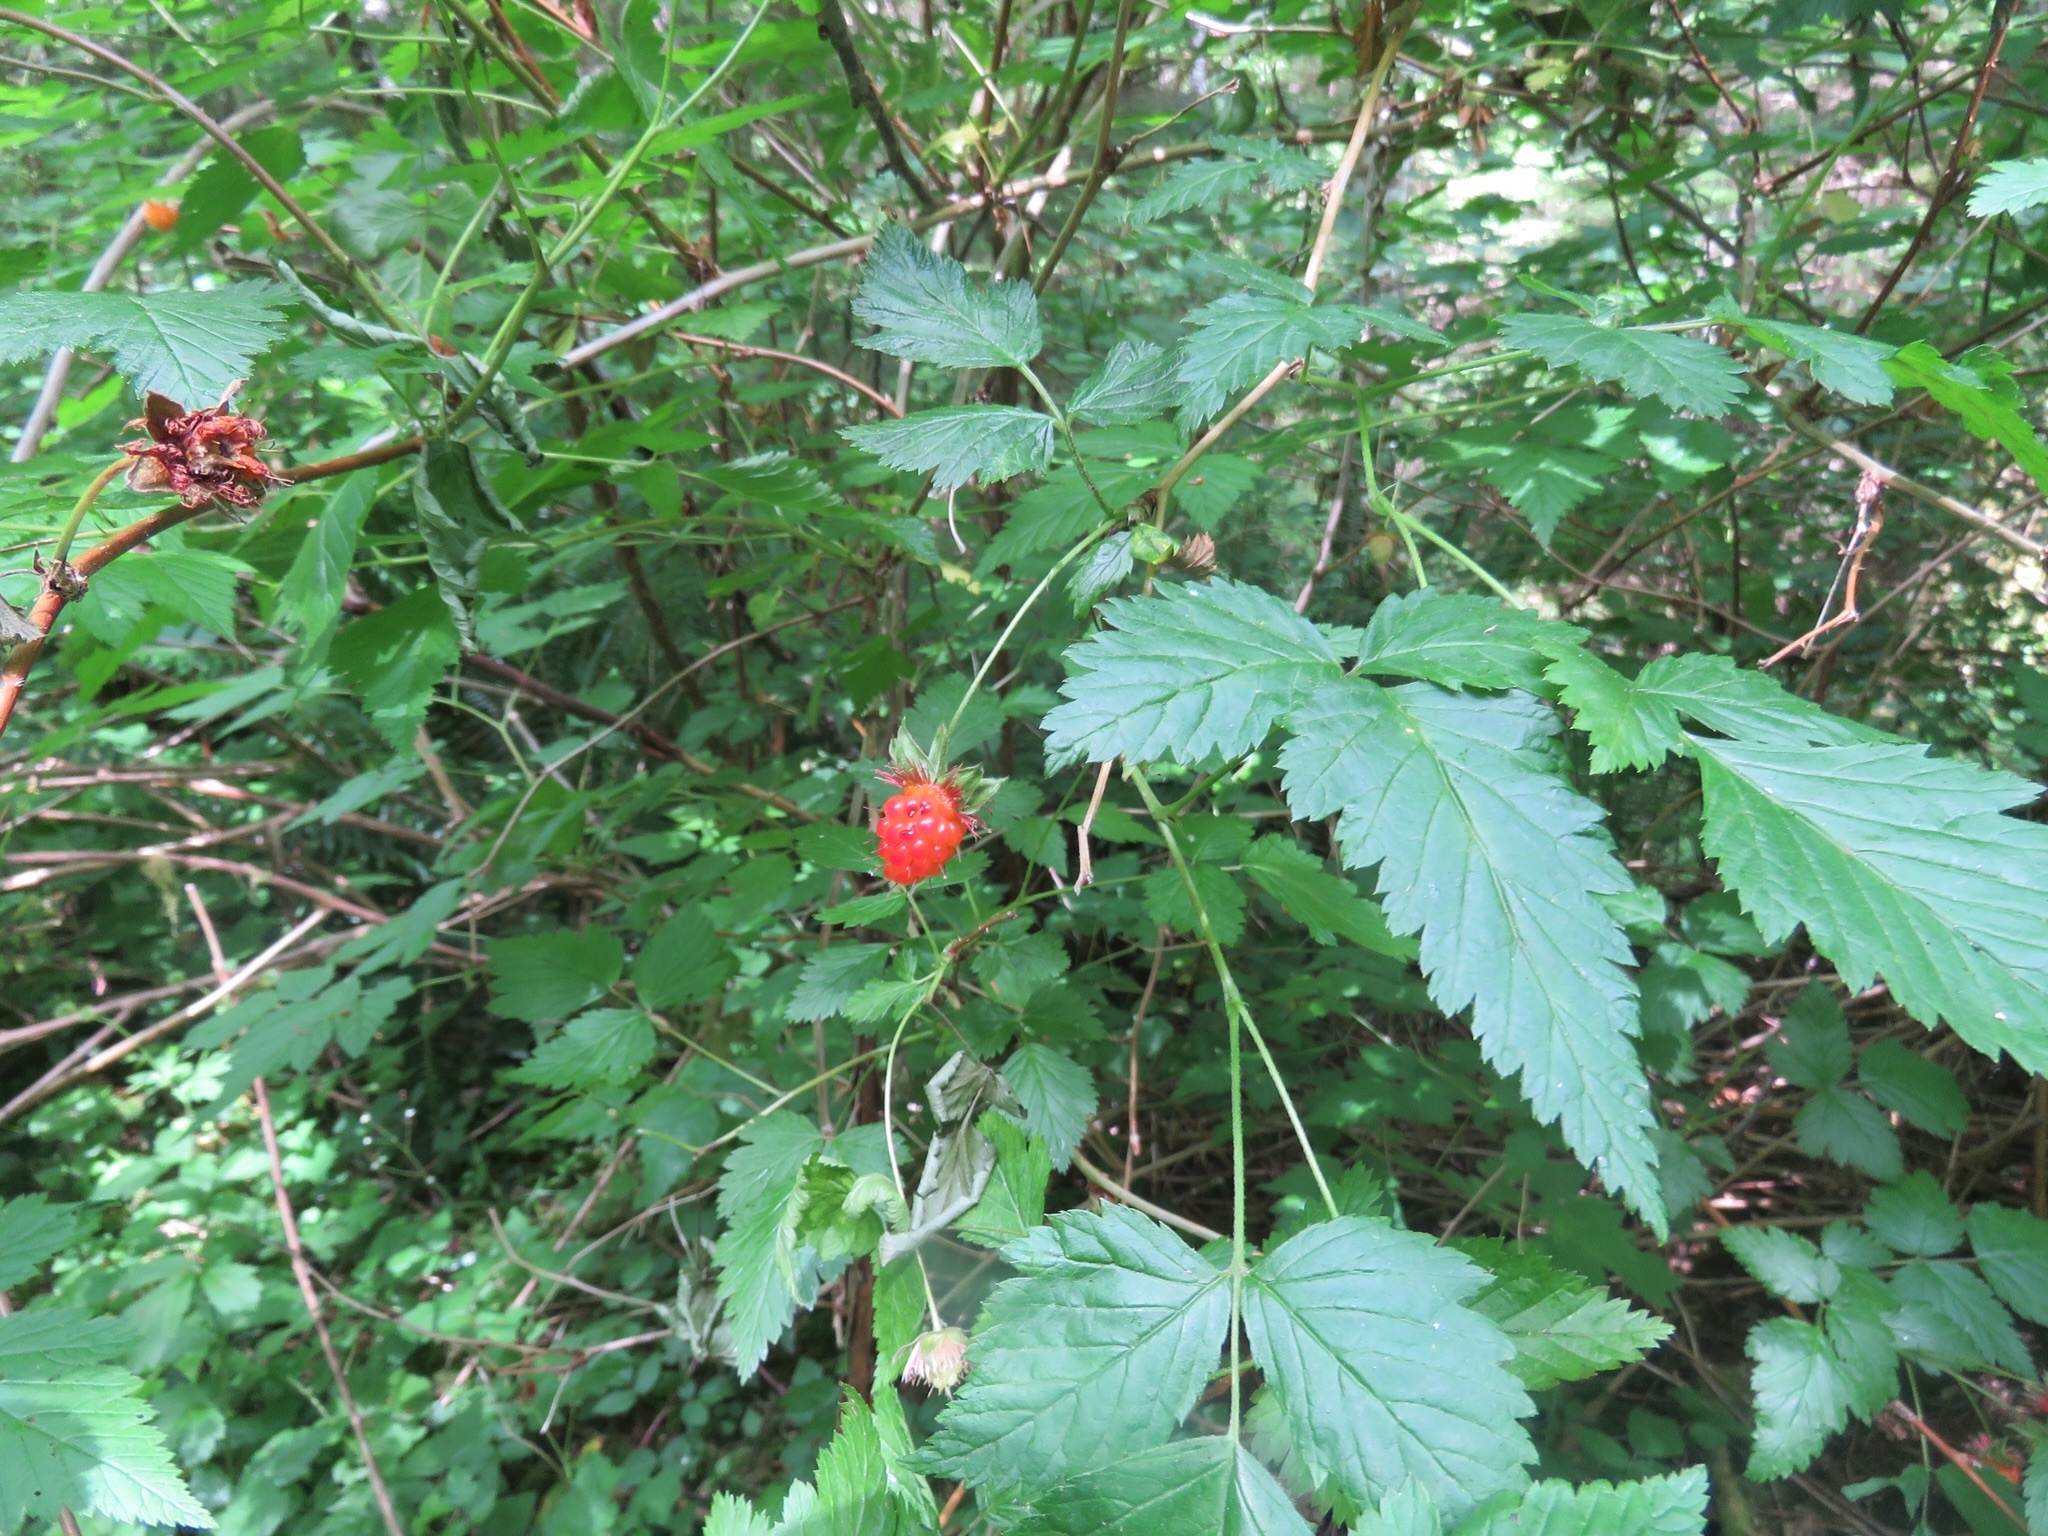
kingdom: Plantae
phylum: Tracheophyta
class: Magnoliopsida
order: Rosales
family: Rosaceae
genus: Rubus
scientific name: Rubus spectabilis
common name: Salmonberry
